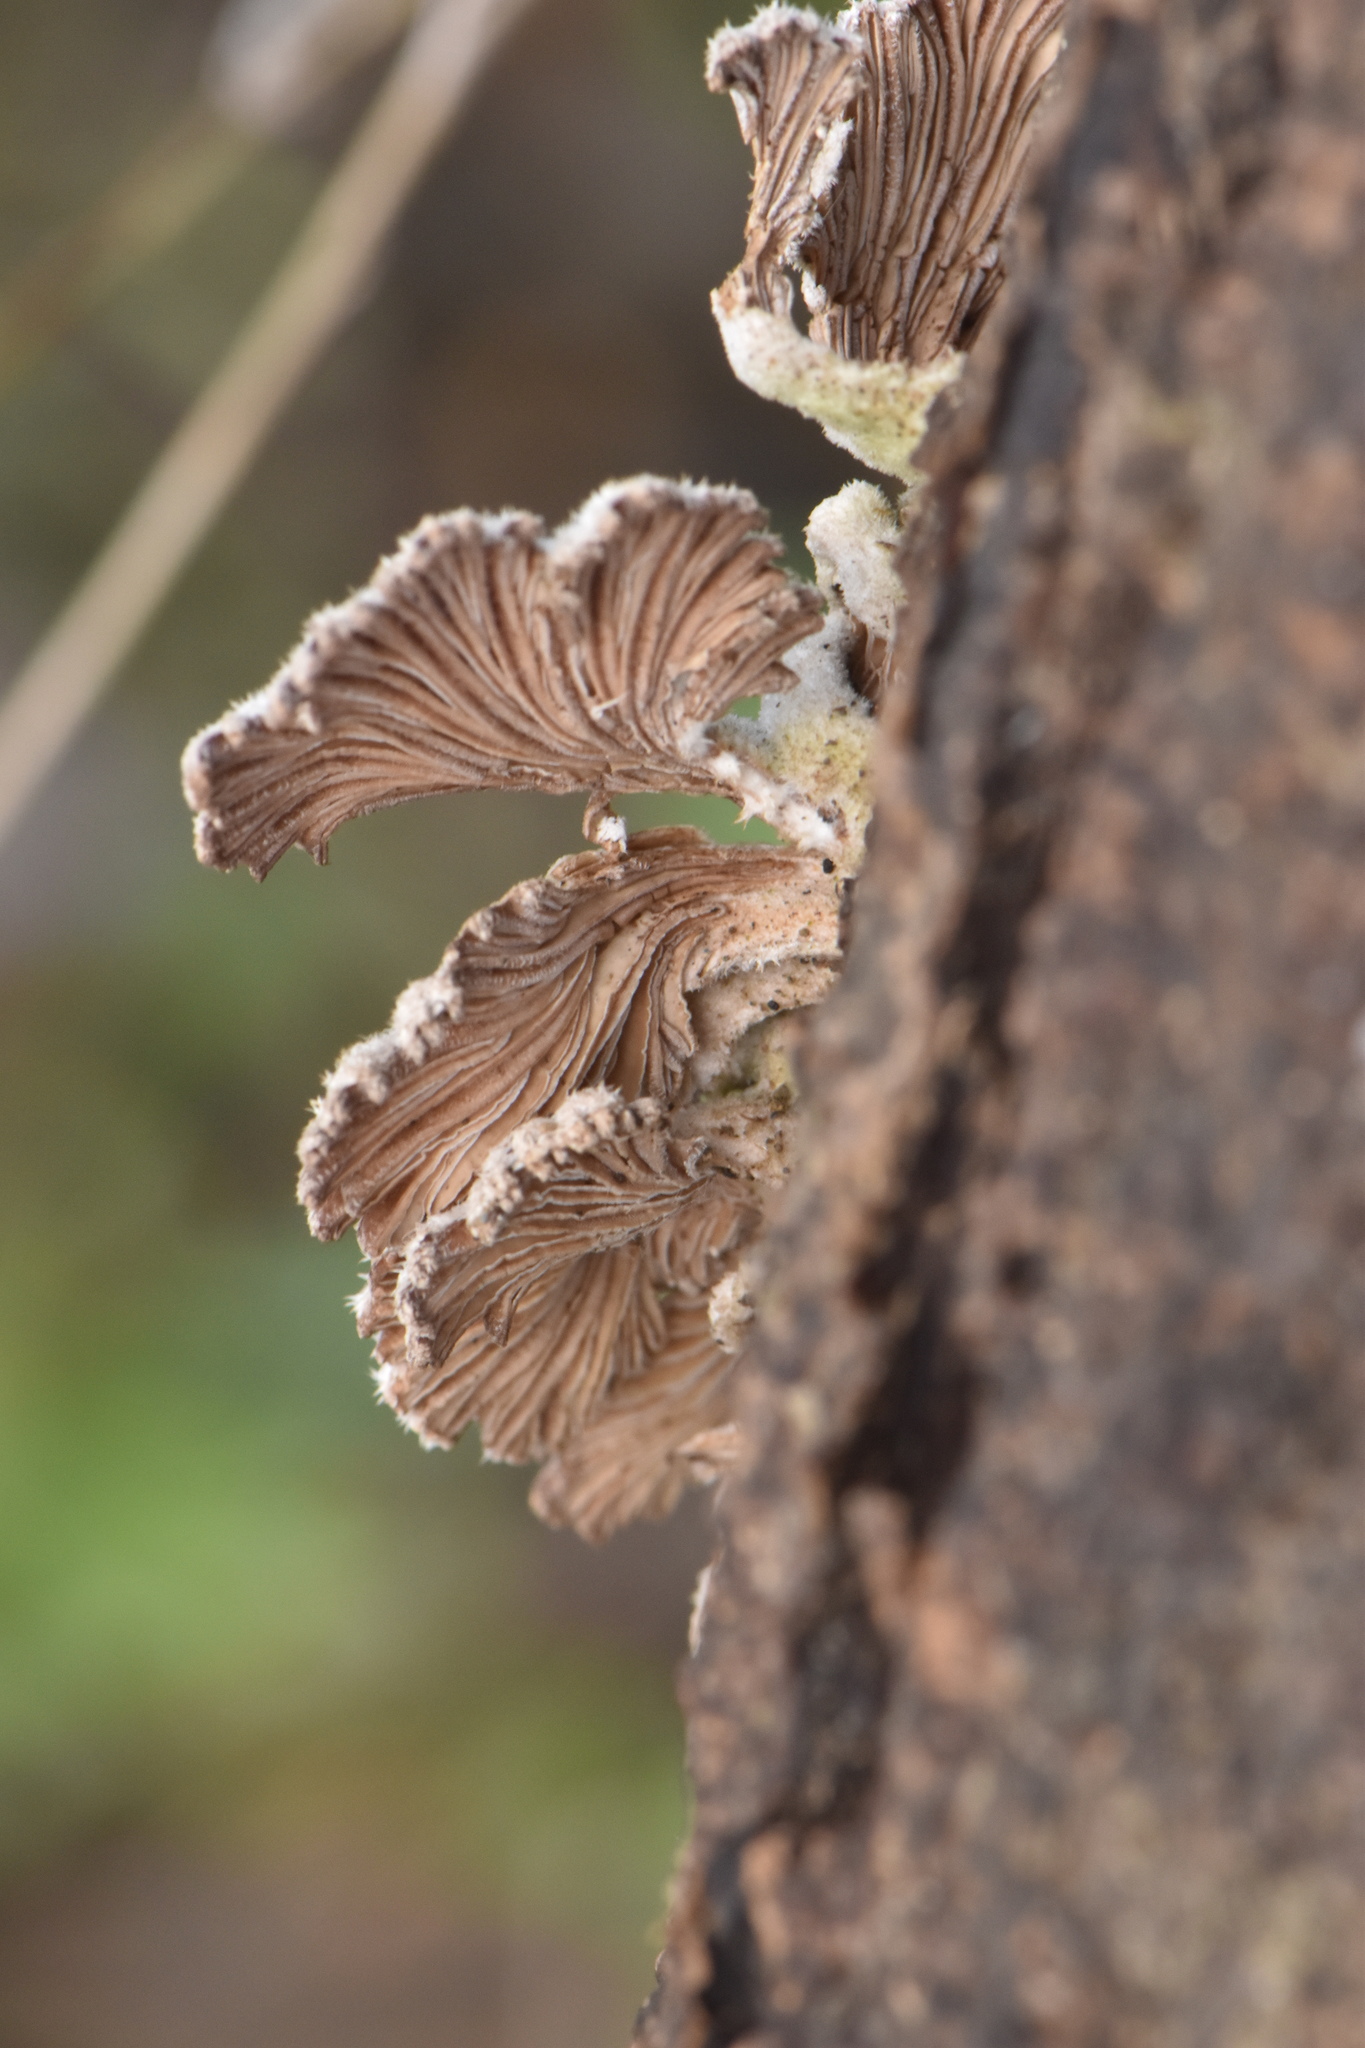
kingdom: Fungi
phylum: Basidiomycota
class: Agaricomycetes
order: Agaricales
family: Schizophyllaceae
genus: Schizophyllum
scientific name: Schizophyllum commune
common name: Common porecrust
